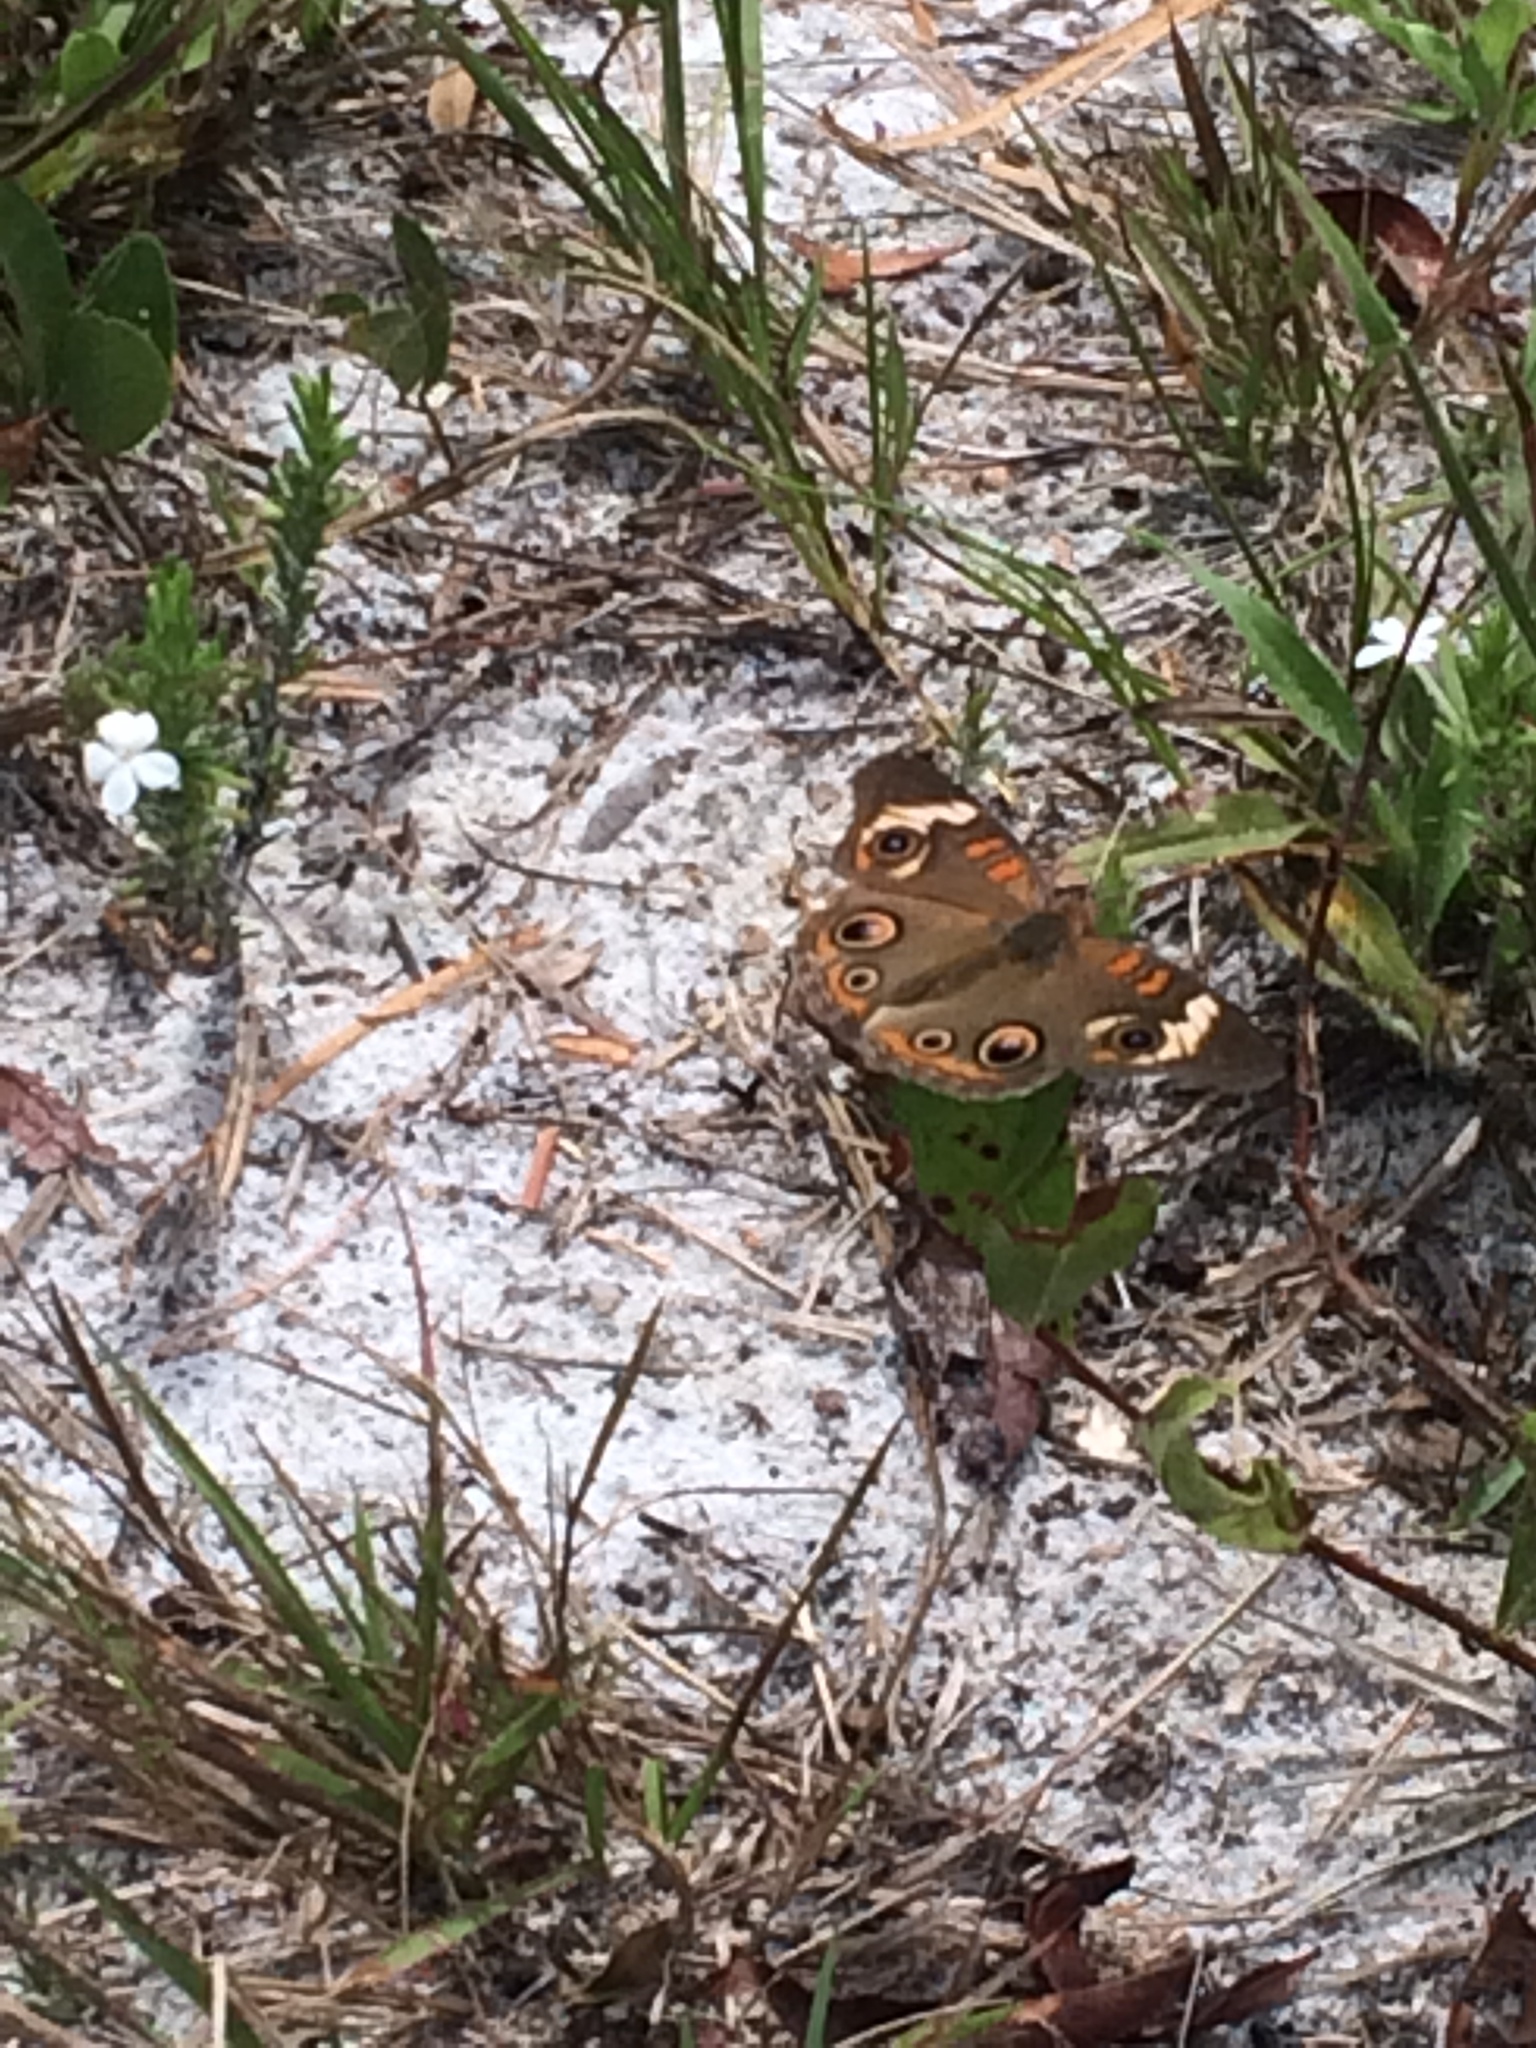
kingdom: Animalia
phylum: Arthropoda
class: Insecta
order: Lepidoptera
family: Nymphalidae
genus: Junonia
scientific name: Junonia coenia
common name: Common buckeye
